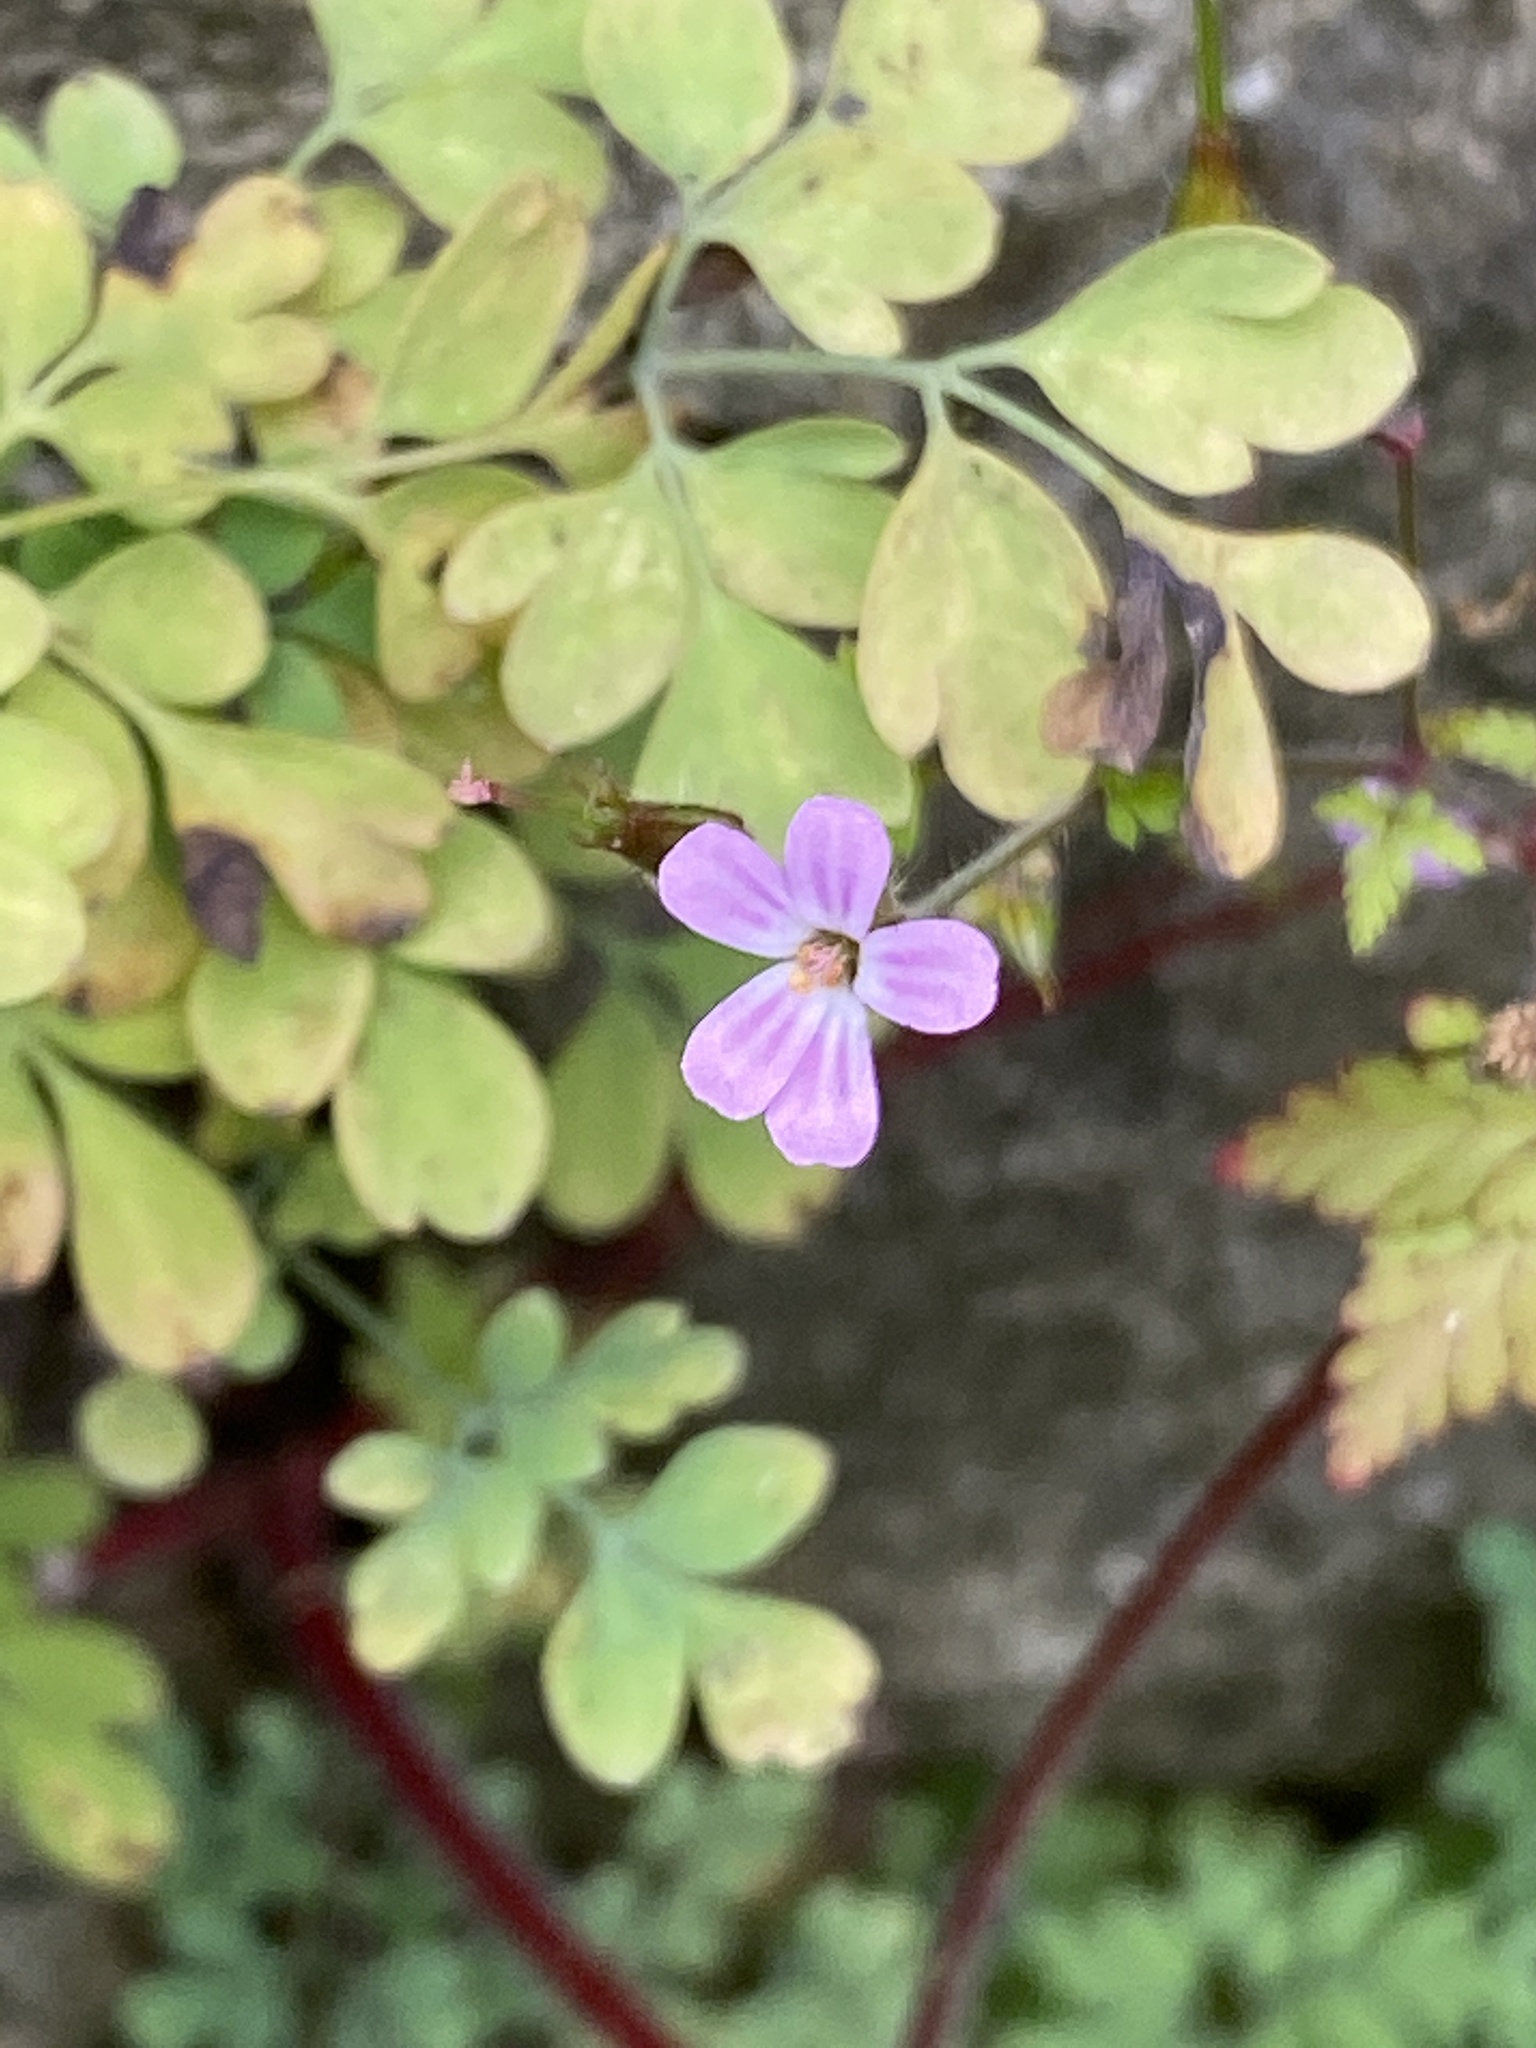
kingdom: Plantae
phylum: Tracheophyta
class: Magnoliopsida
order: Geraniales
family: Geraniaceae
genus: Geranium
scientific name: Geranium robertianum
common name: Herb-robert
